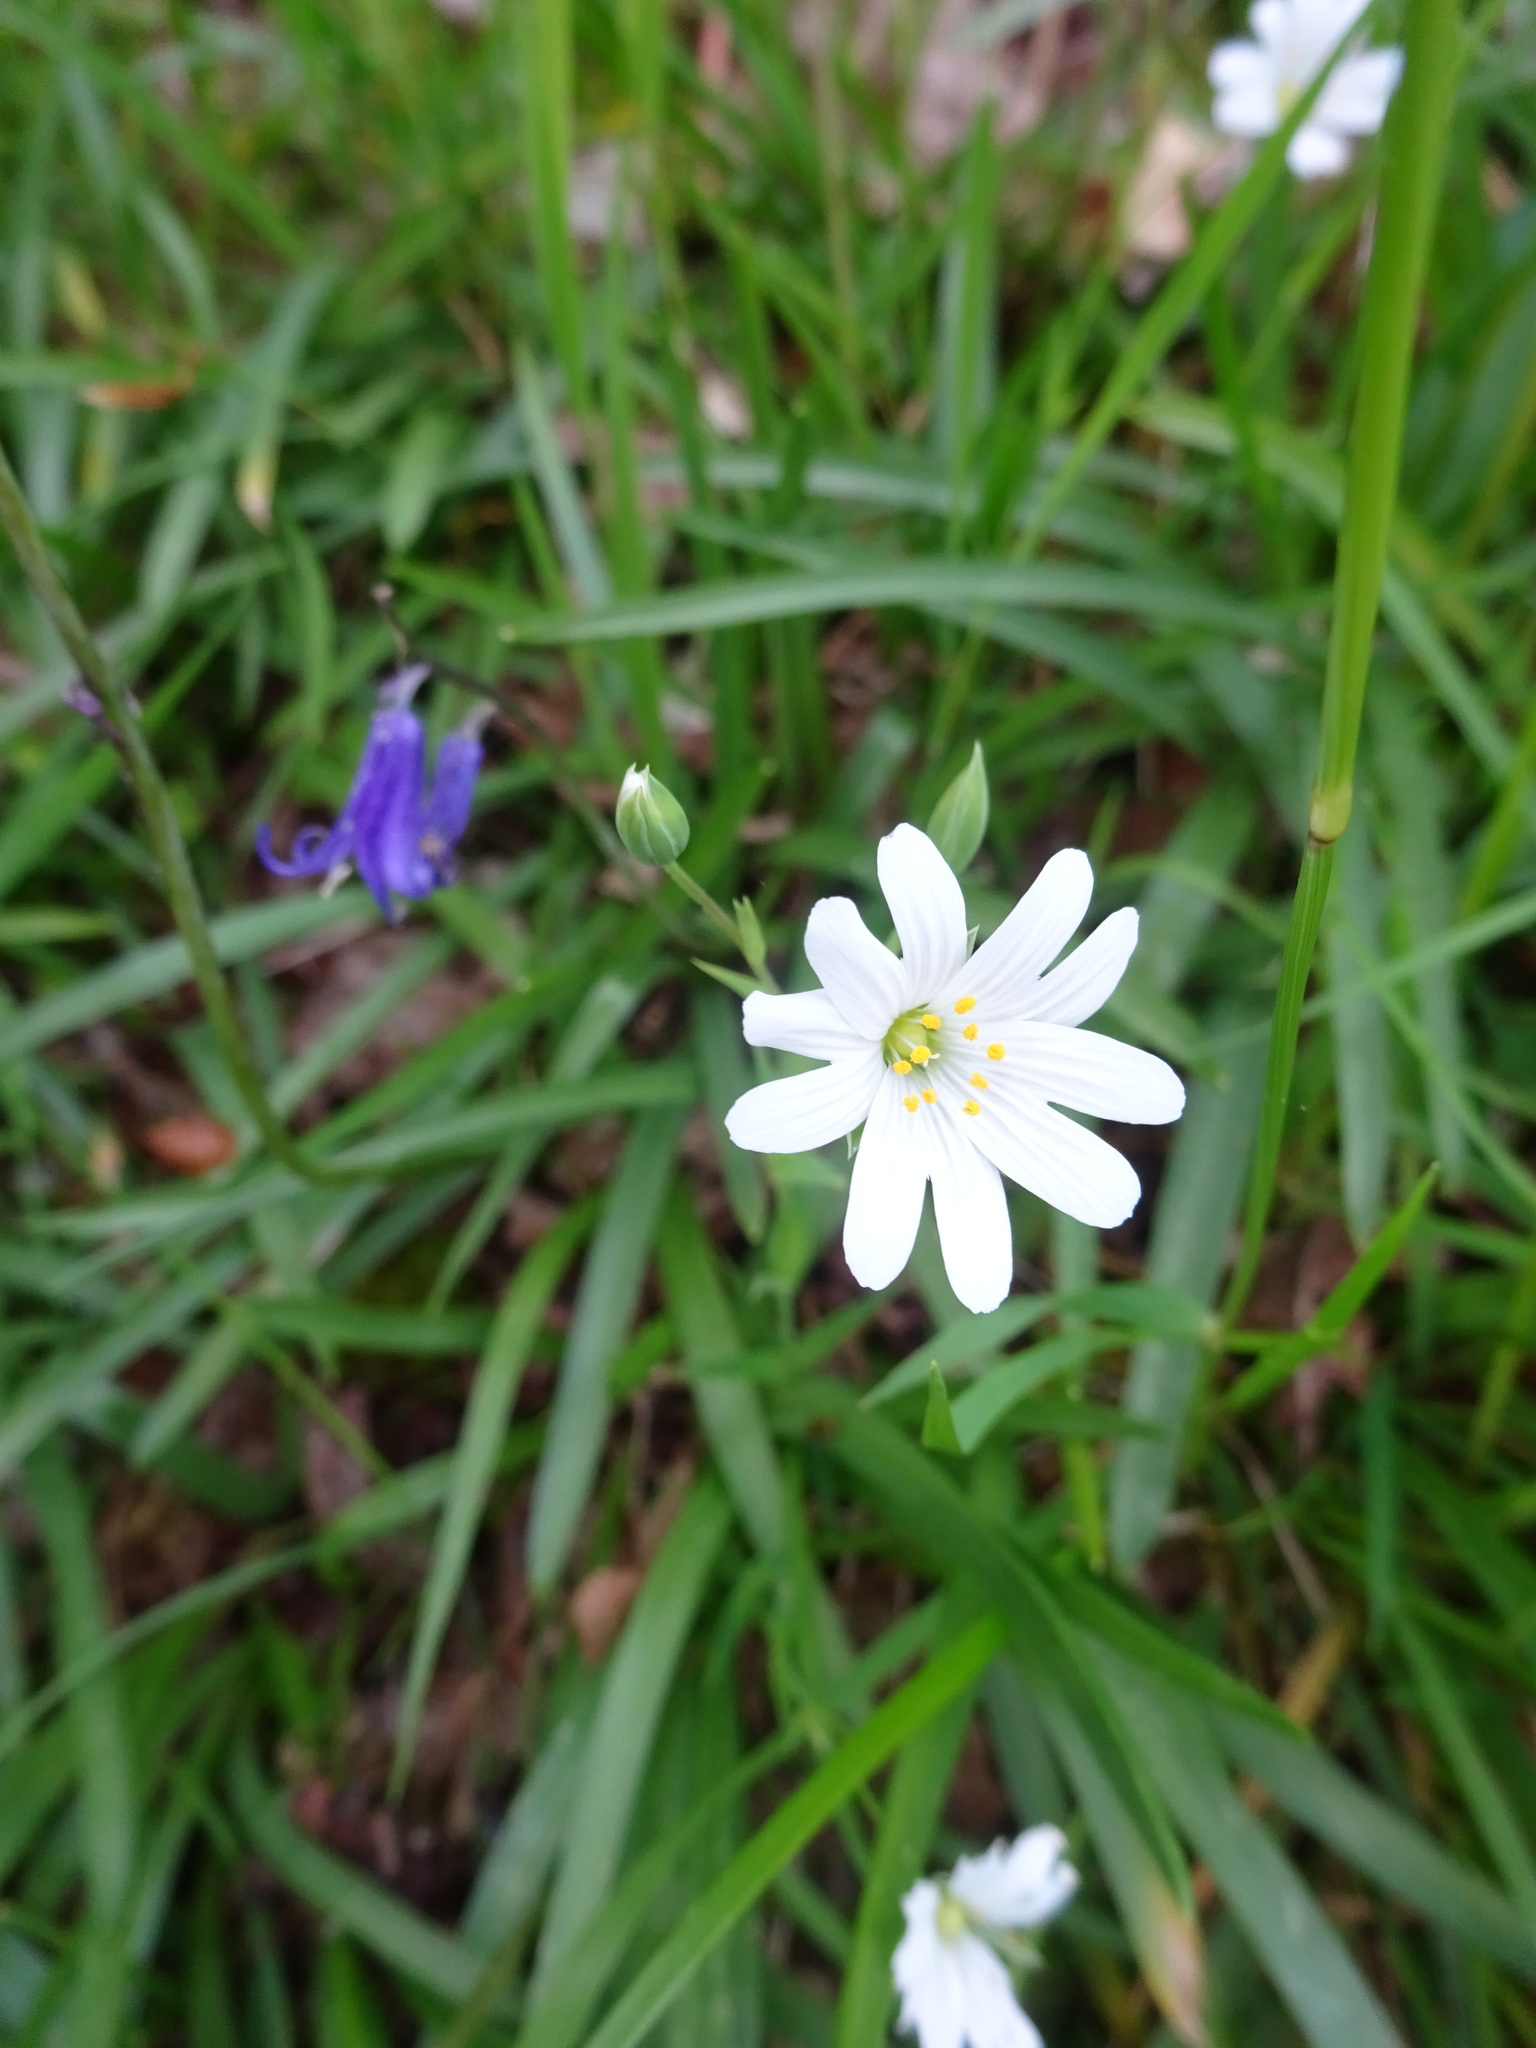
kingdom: Plantae
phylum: Tracheophyta
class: Magnoliopsida
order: Caryophyllales
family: Caryophyllaceae
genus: Rabelera
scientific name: Rabelera holostea
